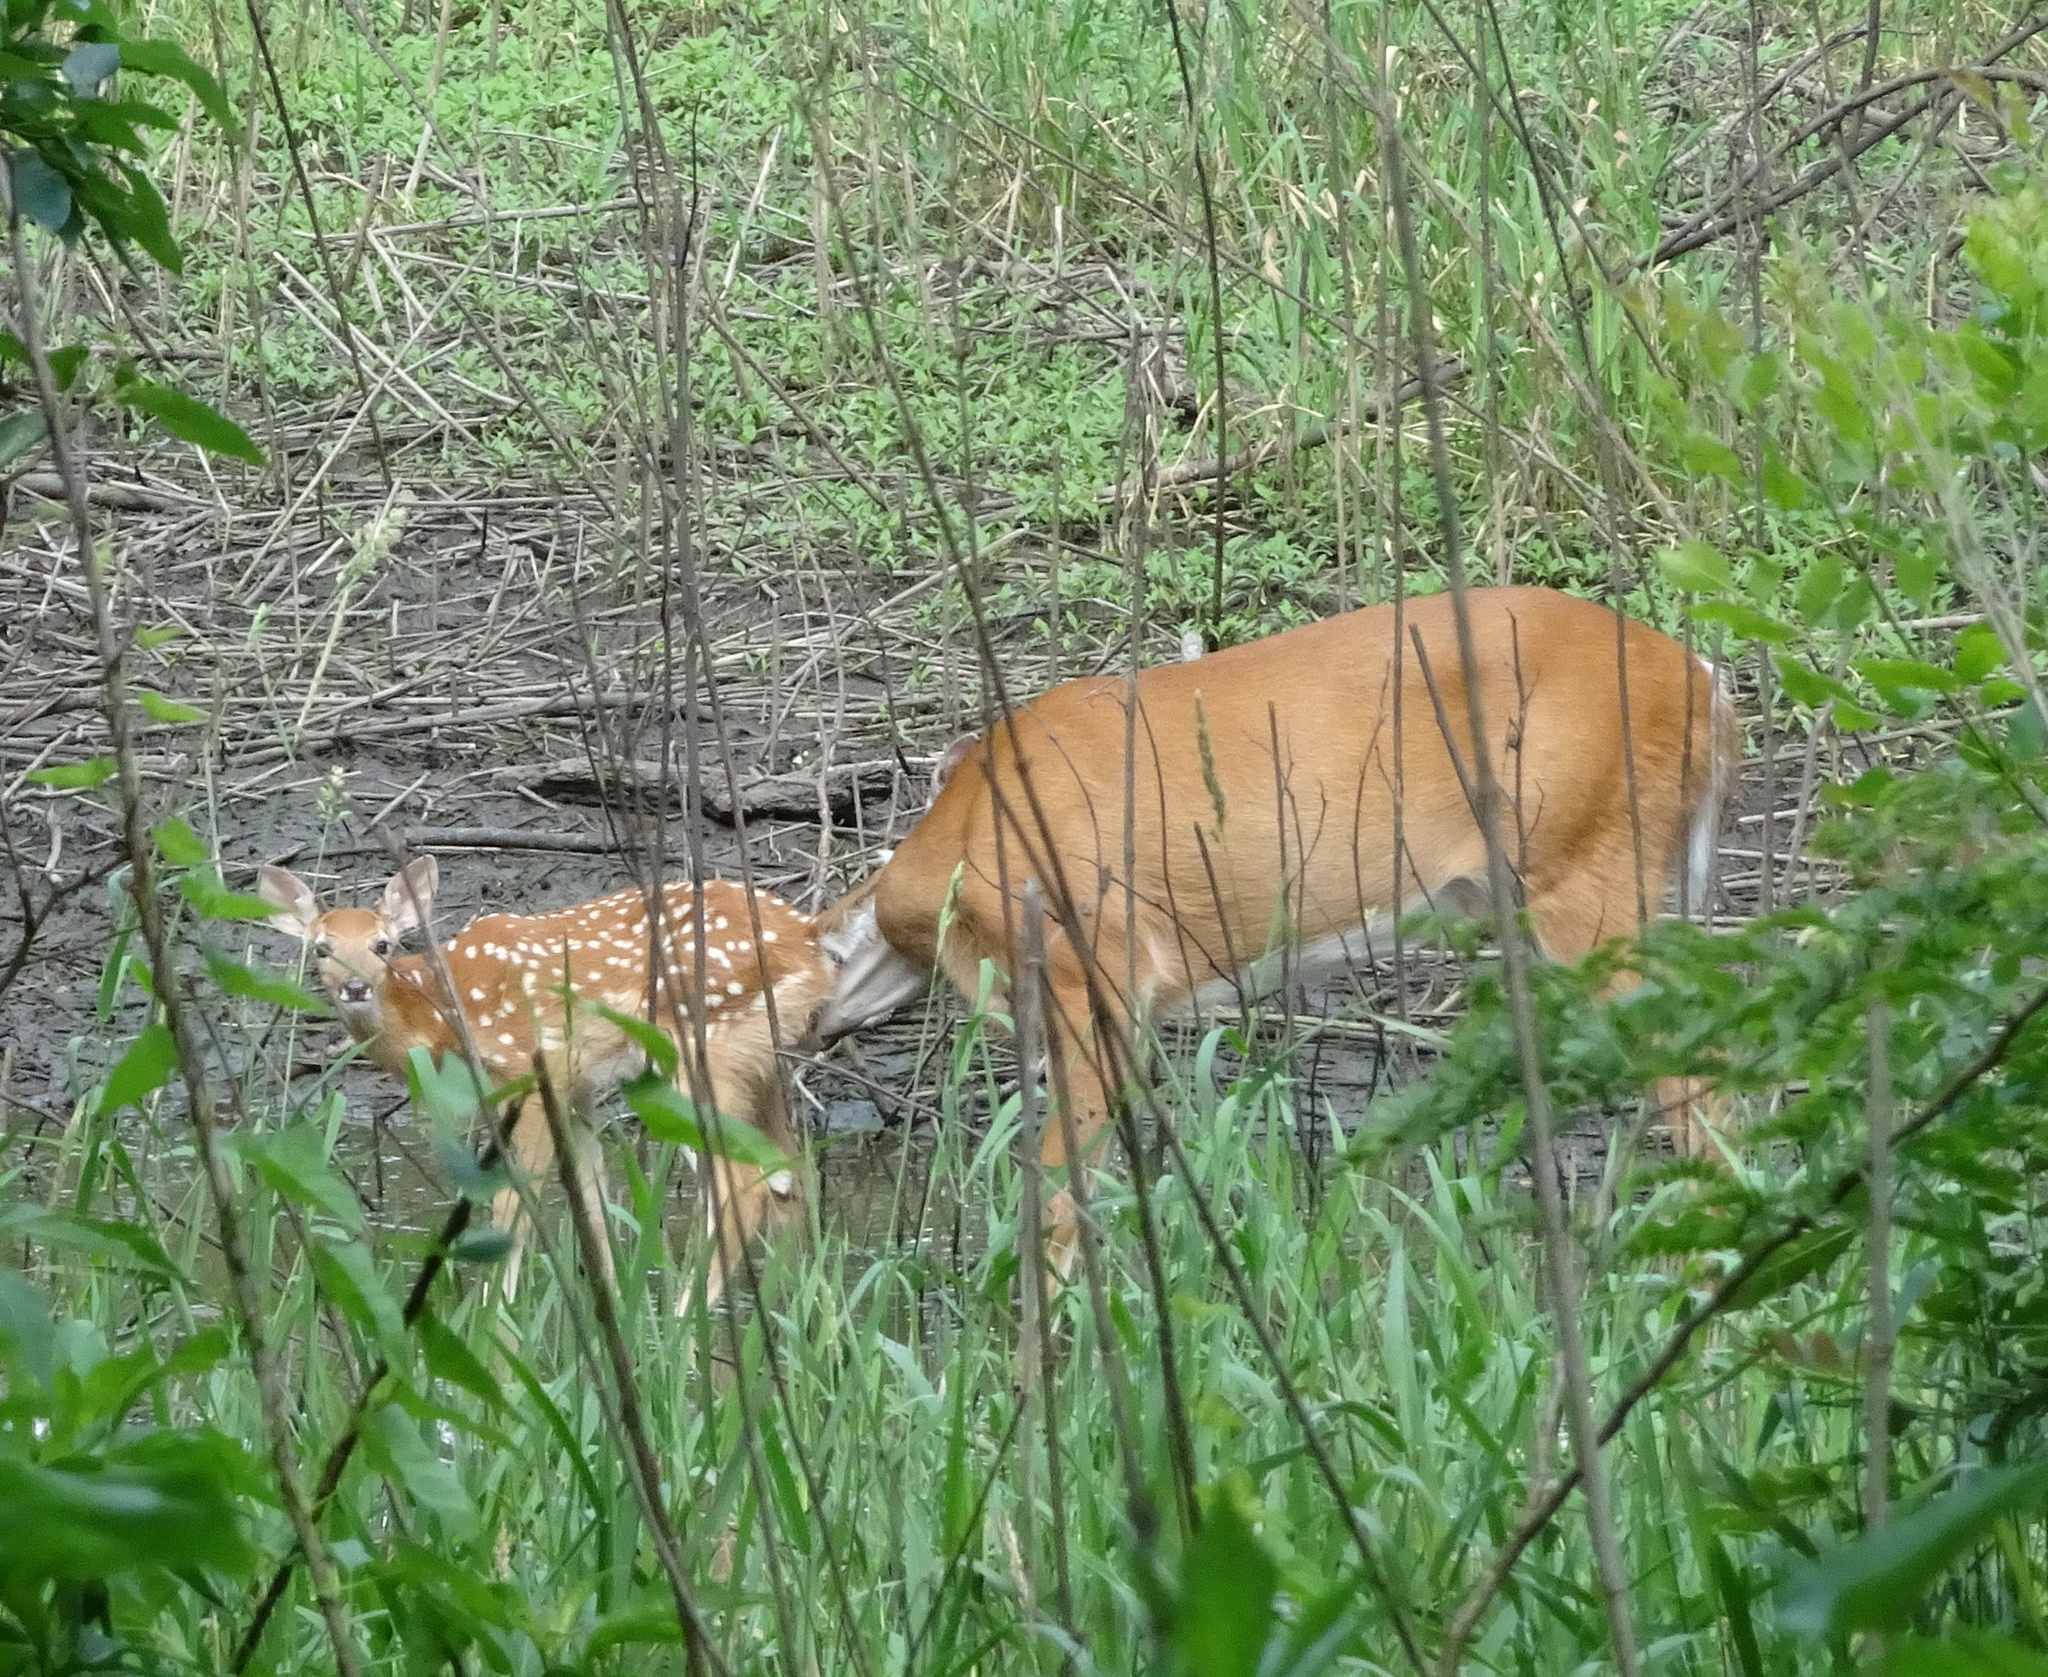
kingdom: Animalia
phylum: Chordata
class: Mammalia
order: Artiodactyla
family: Cervidae
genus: Odocoileus
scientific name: Odocoileus virginianus
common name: White-tailed deer
